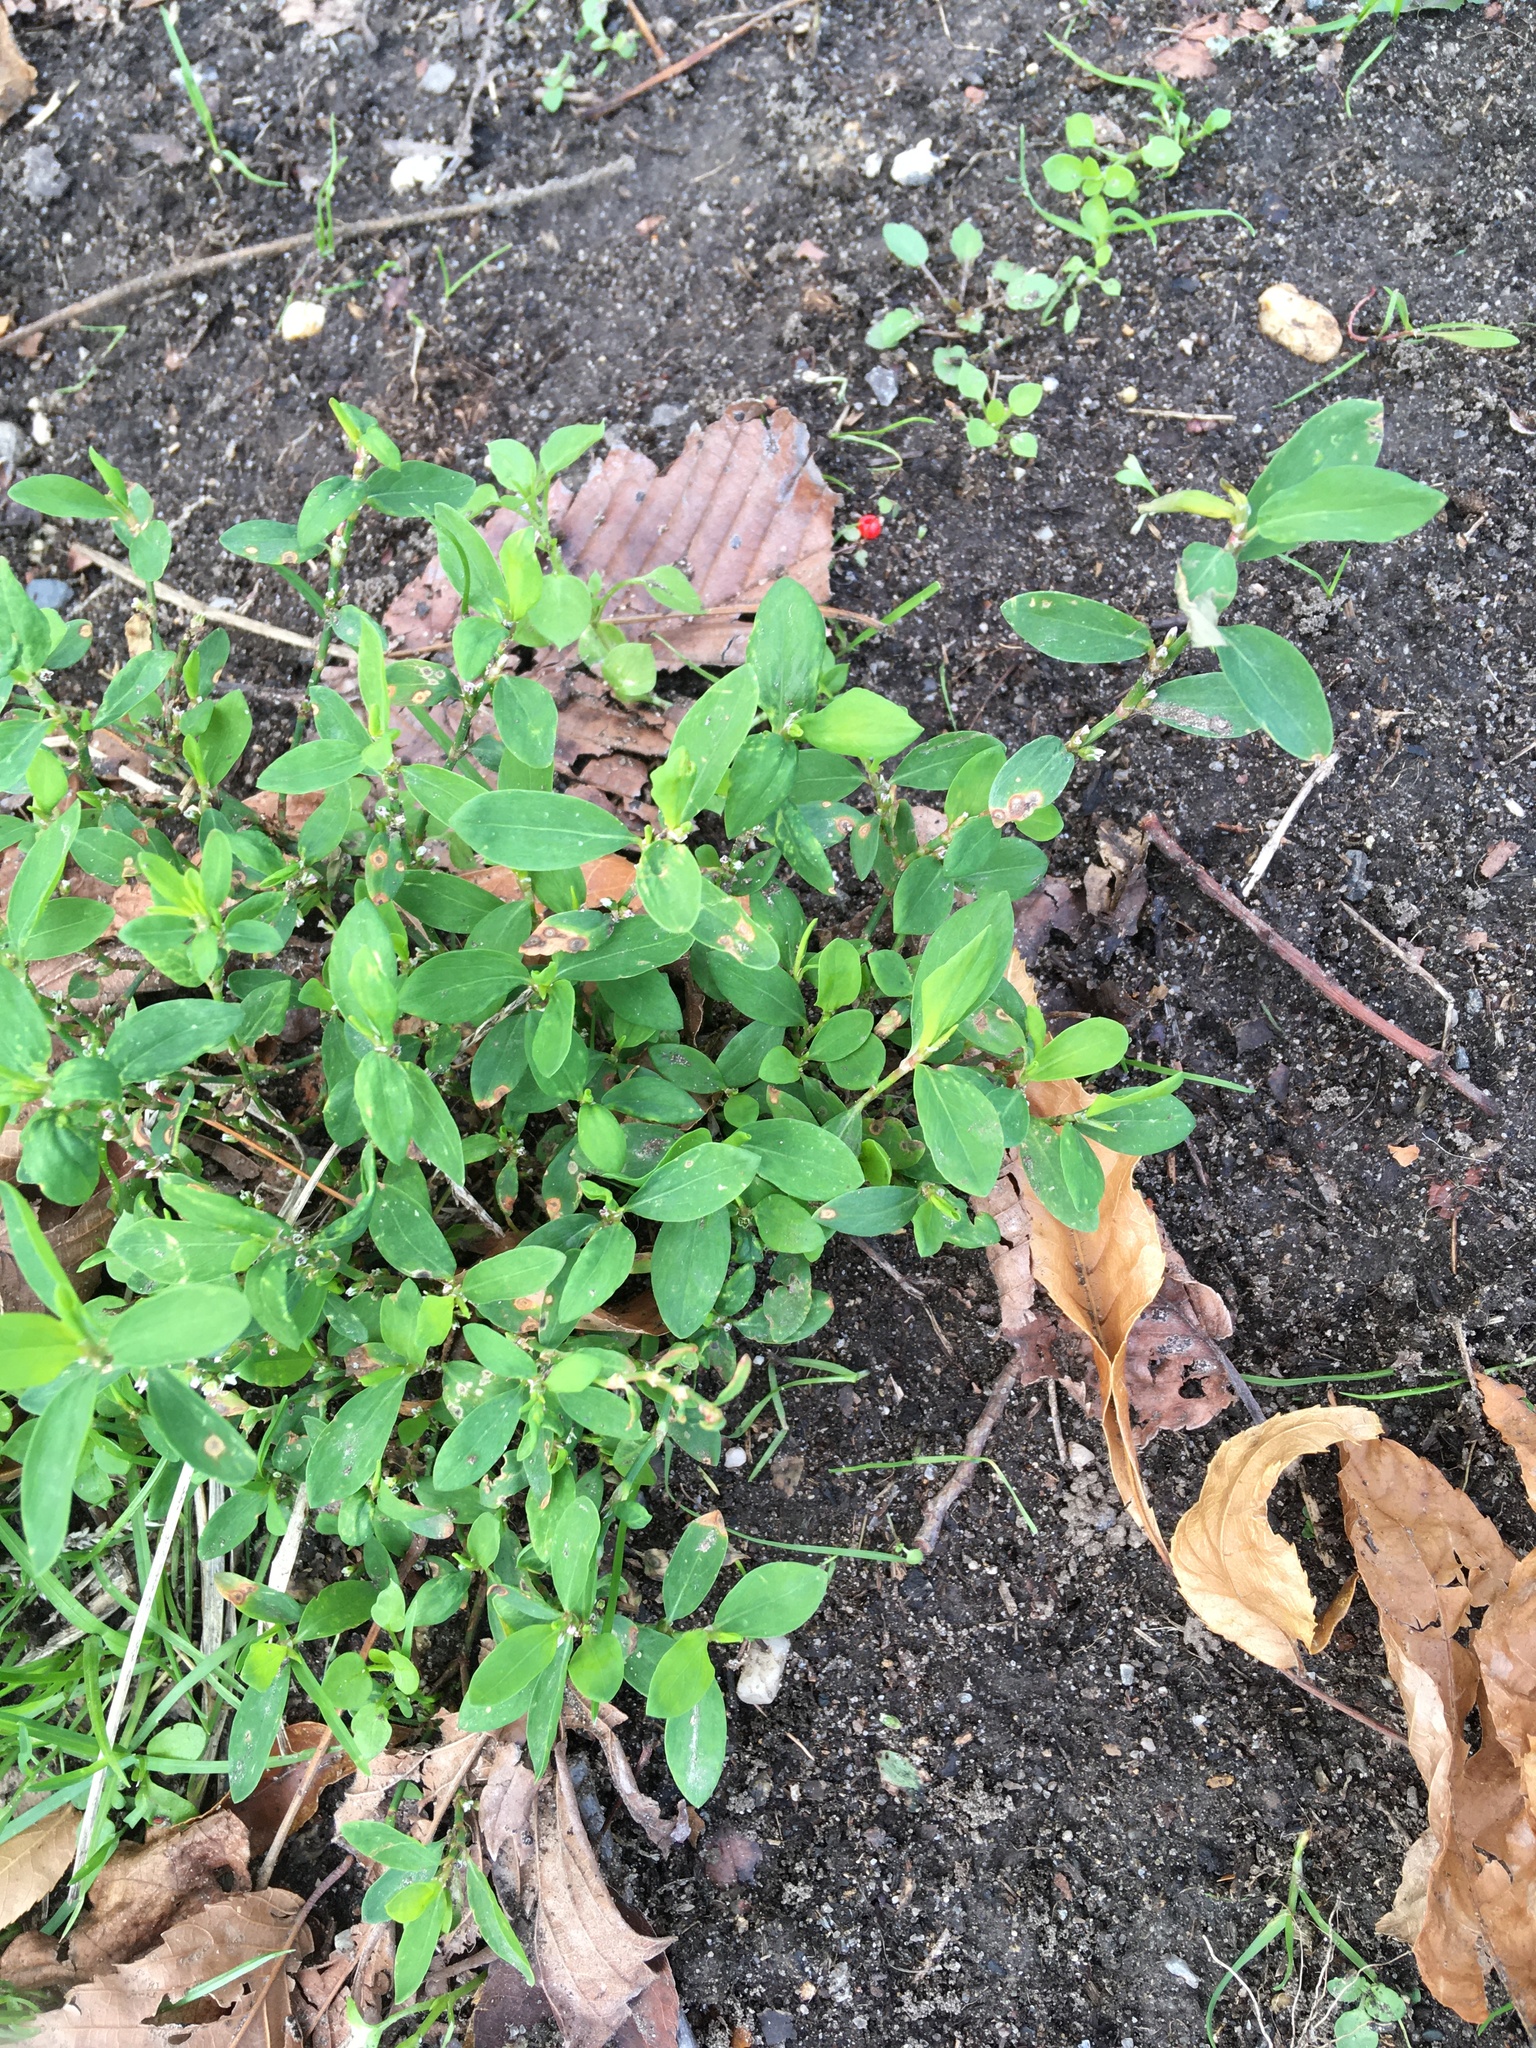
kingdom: Plantae
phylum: Tracheophyta
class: Magnoliopsida
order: Caryophyllales
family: Polygonaceae
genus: Polygonum
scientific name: Polygonum aviculare
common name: Prostrate knotweed
